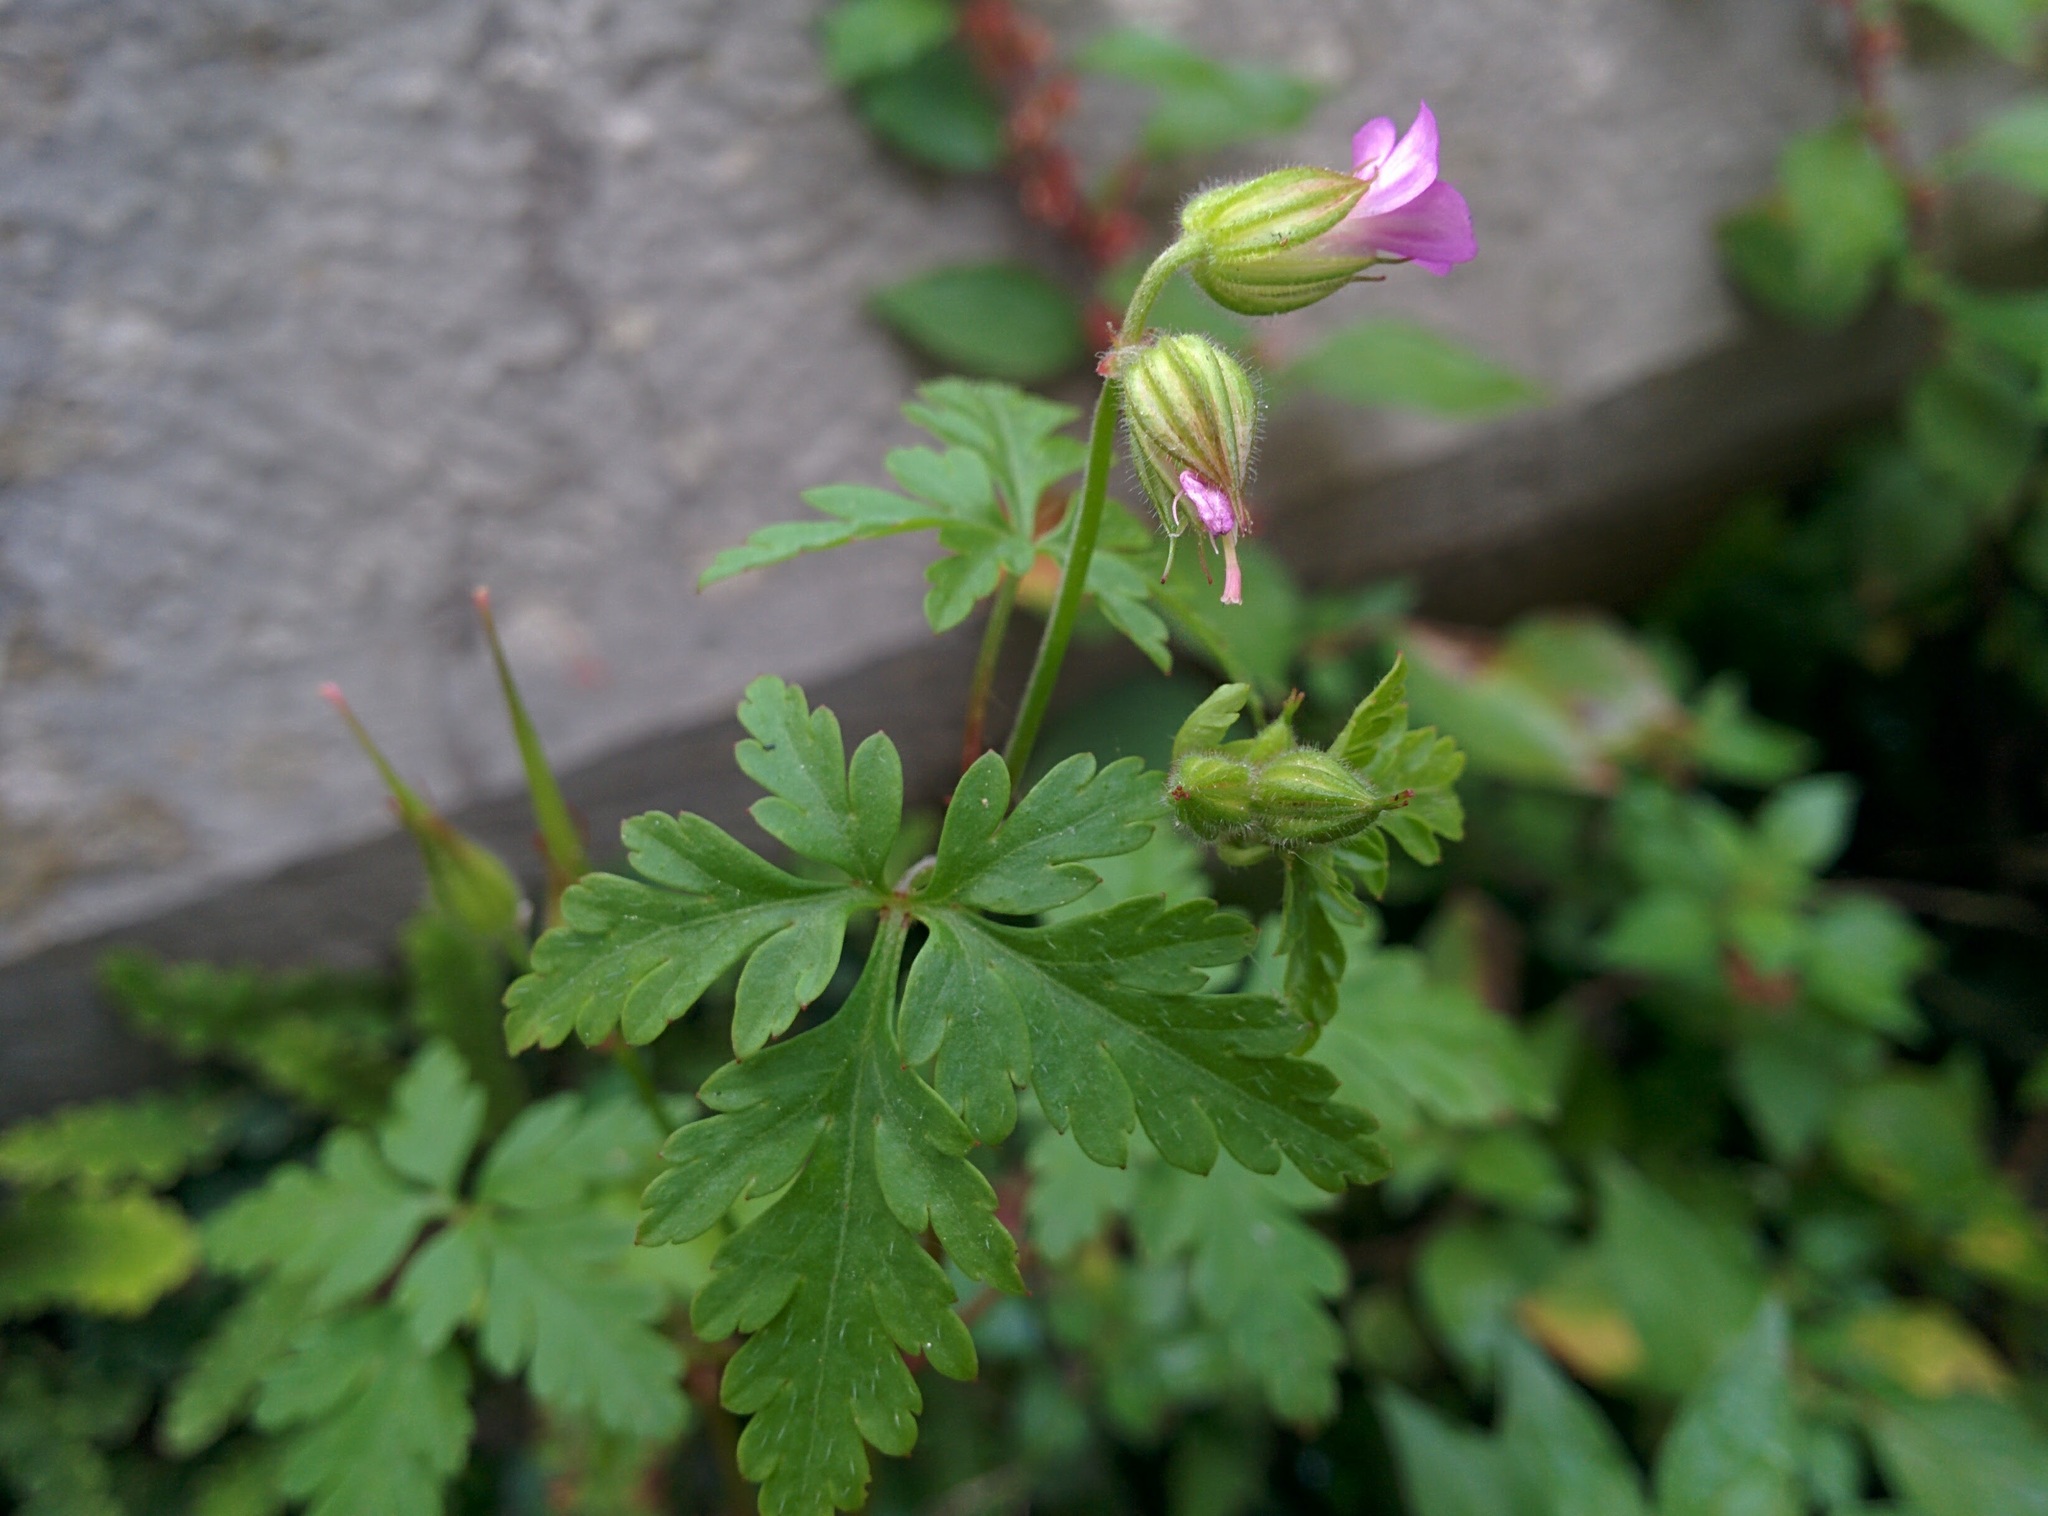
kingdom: Plantae
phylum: Tracheophyta
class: Magnoliopsida
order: Geraniales
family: Geraniaceae
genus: Geranium
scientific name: Geranium robertianum
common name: Herb-robert
